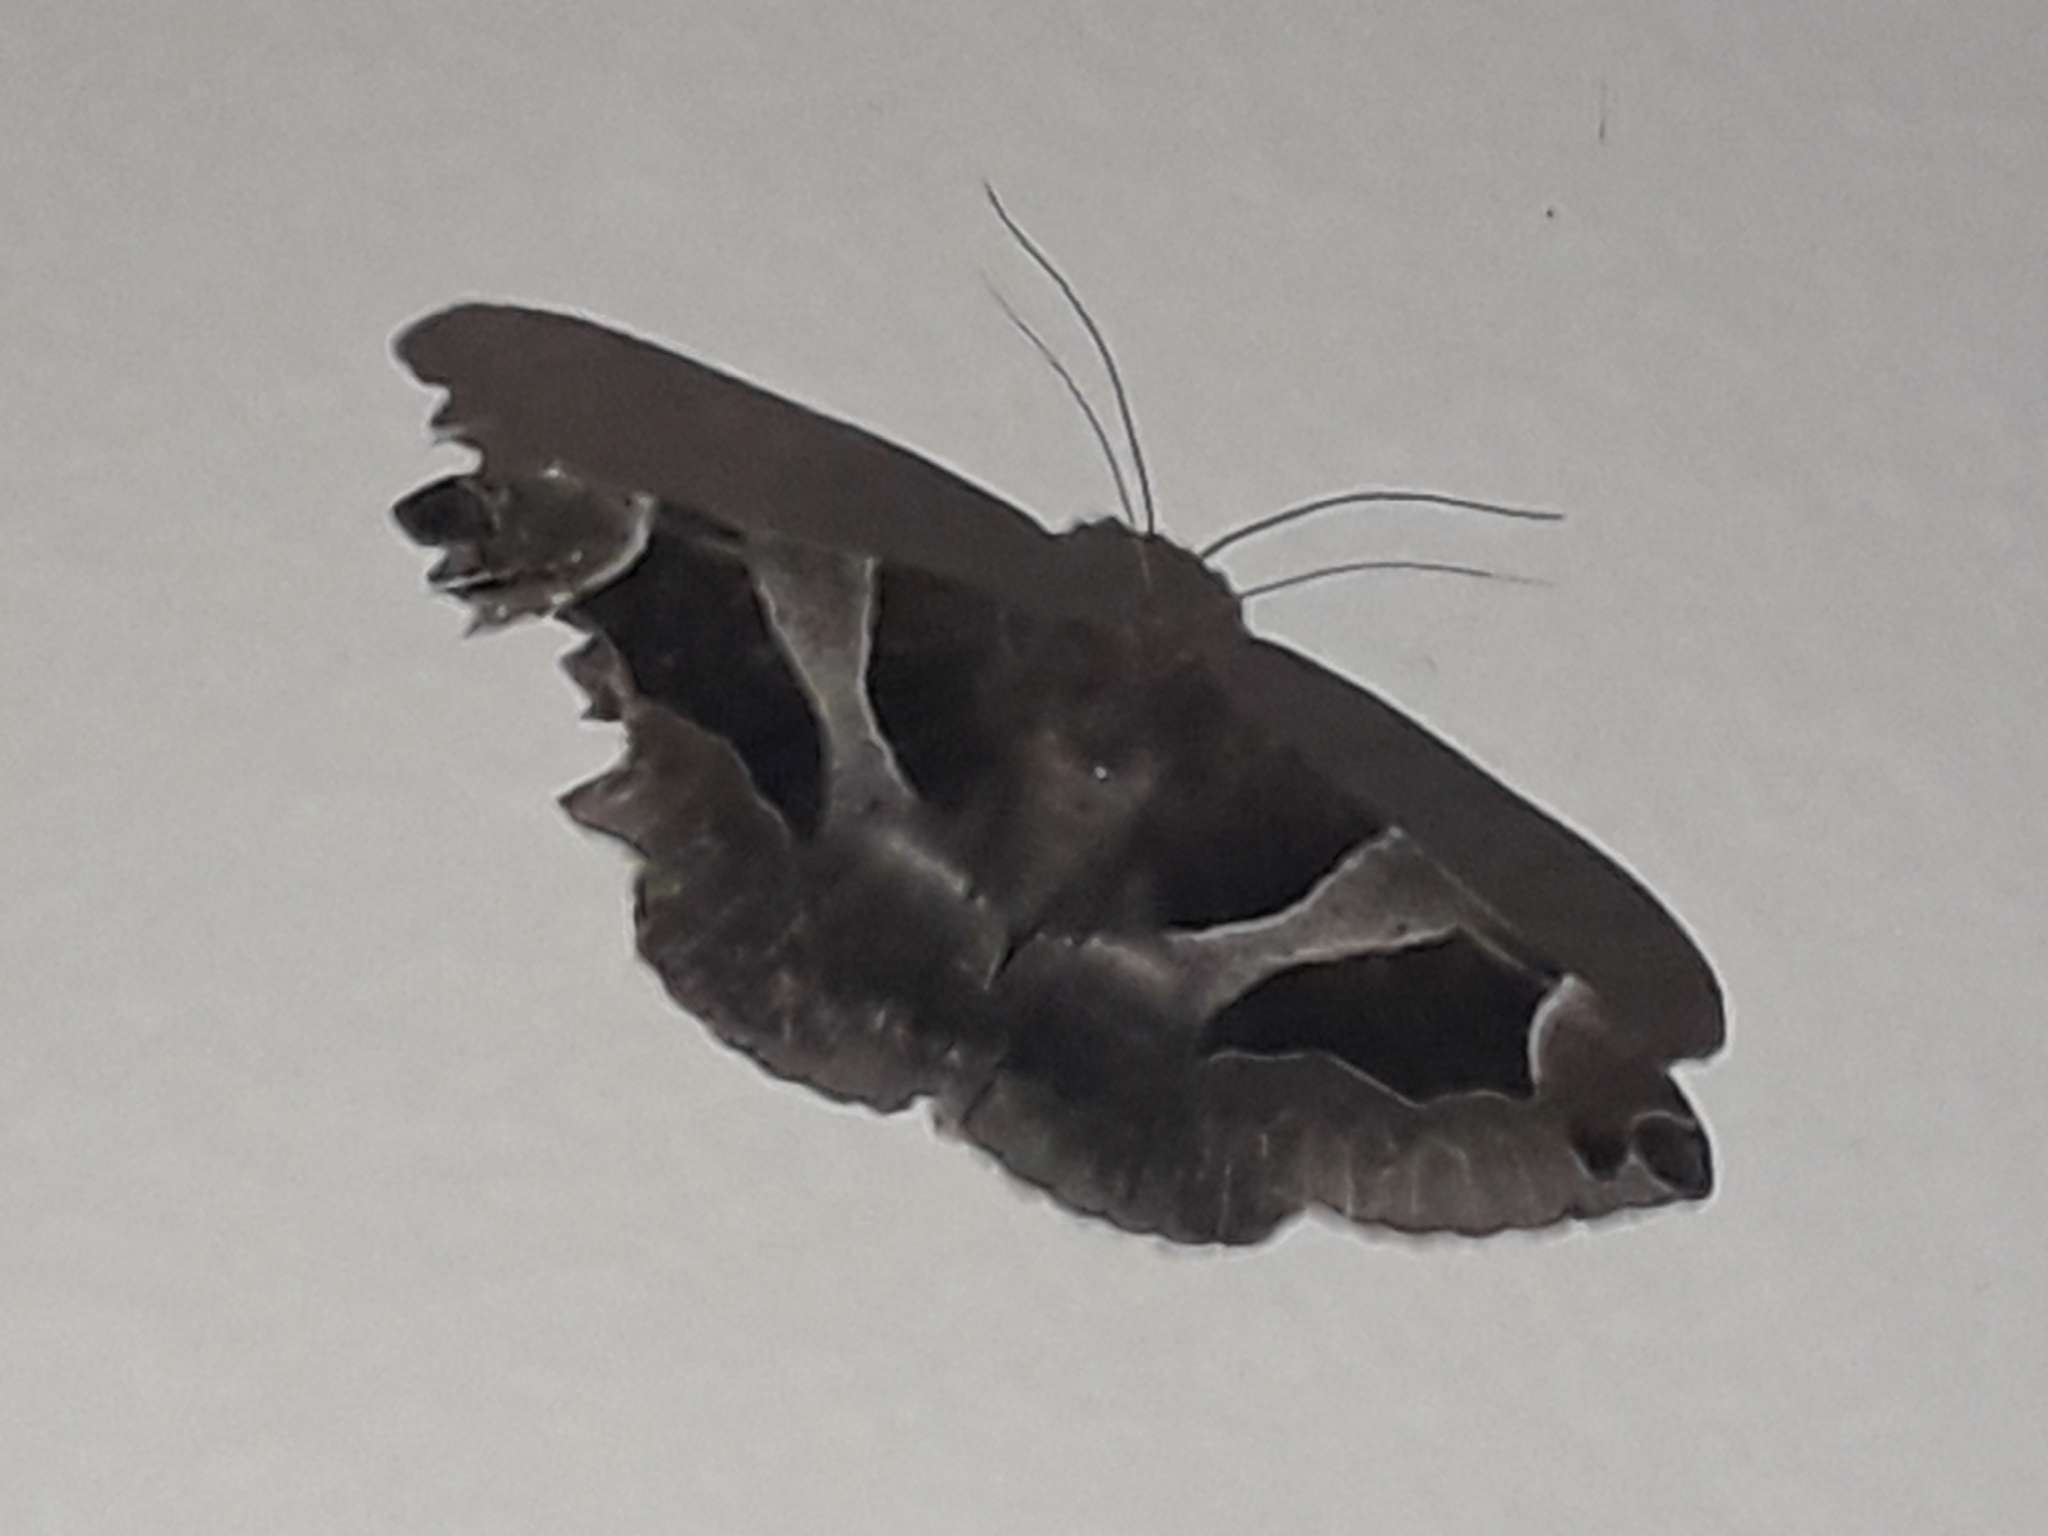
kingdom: Animalia
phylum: Arthropoda
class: Insecta
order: Lepidoptera
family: Erebidae
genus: Dysgonia
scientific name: Dysgonia algira
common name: Passenger
